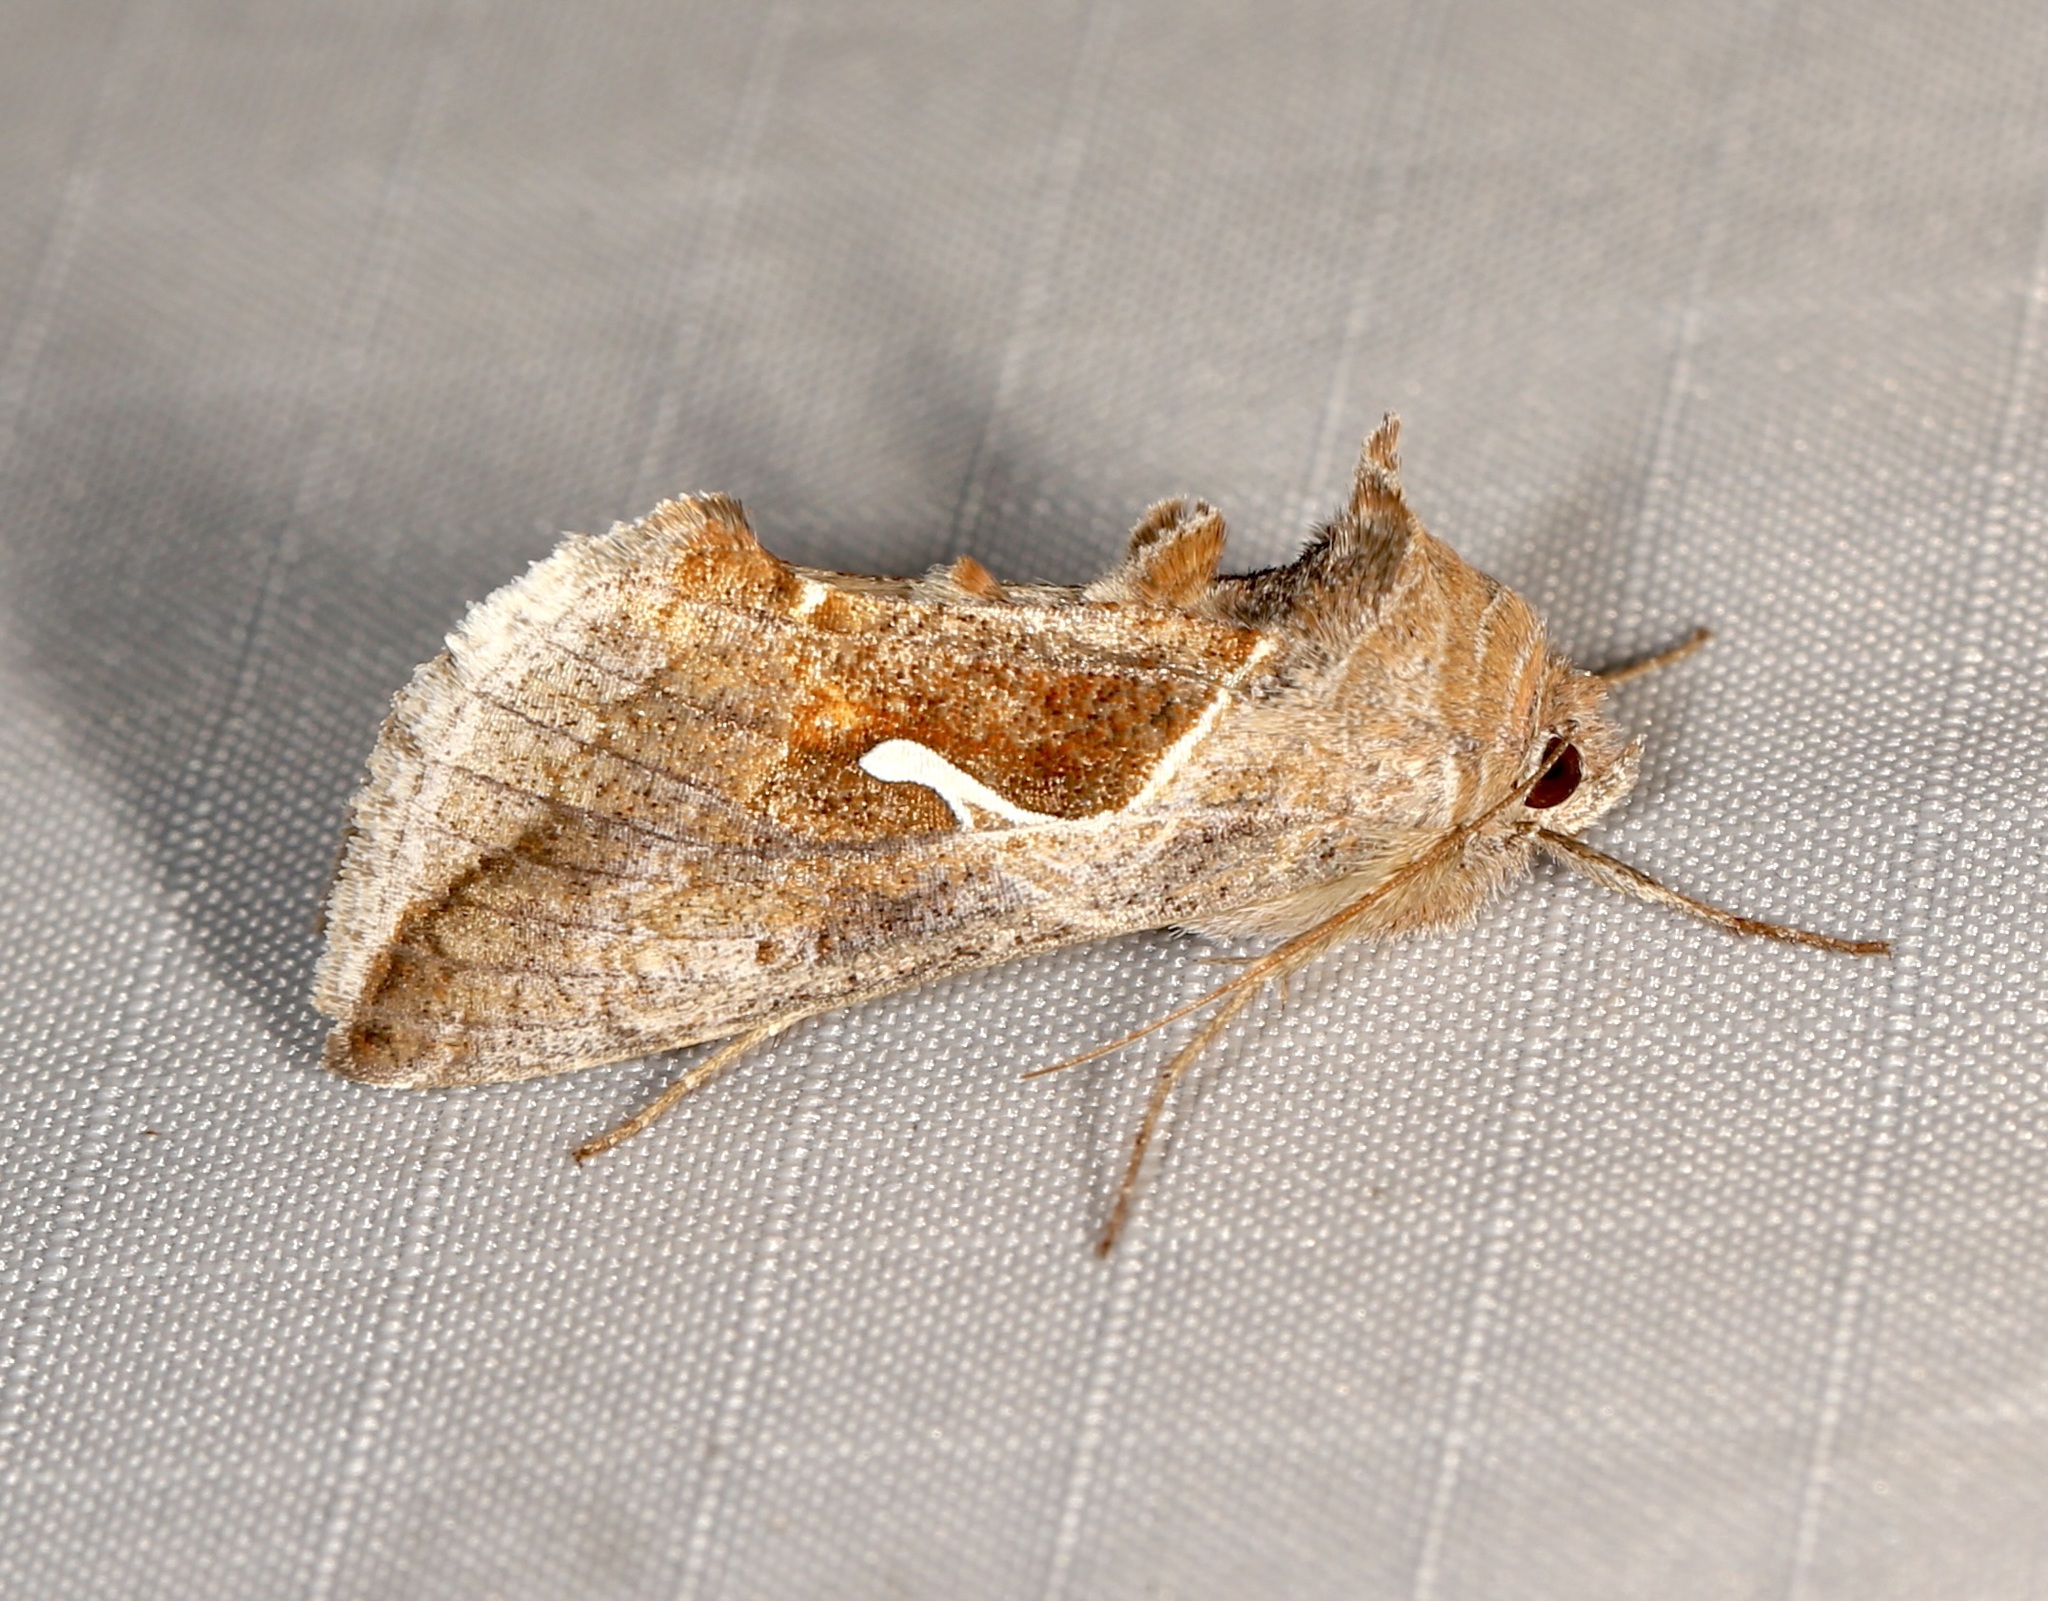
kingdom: Animalia
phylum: Arthropoda
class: Insecta
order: Lepidoptera
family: Noctuidae
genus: Anagrapha
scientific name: Anagrapha falcifera
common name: Celery looper
